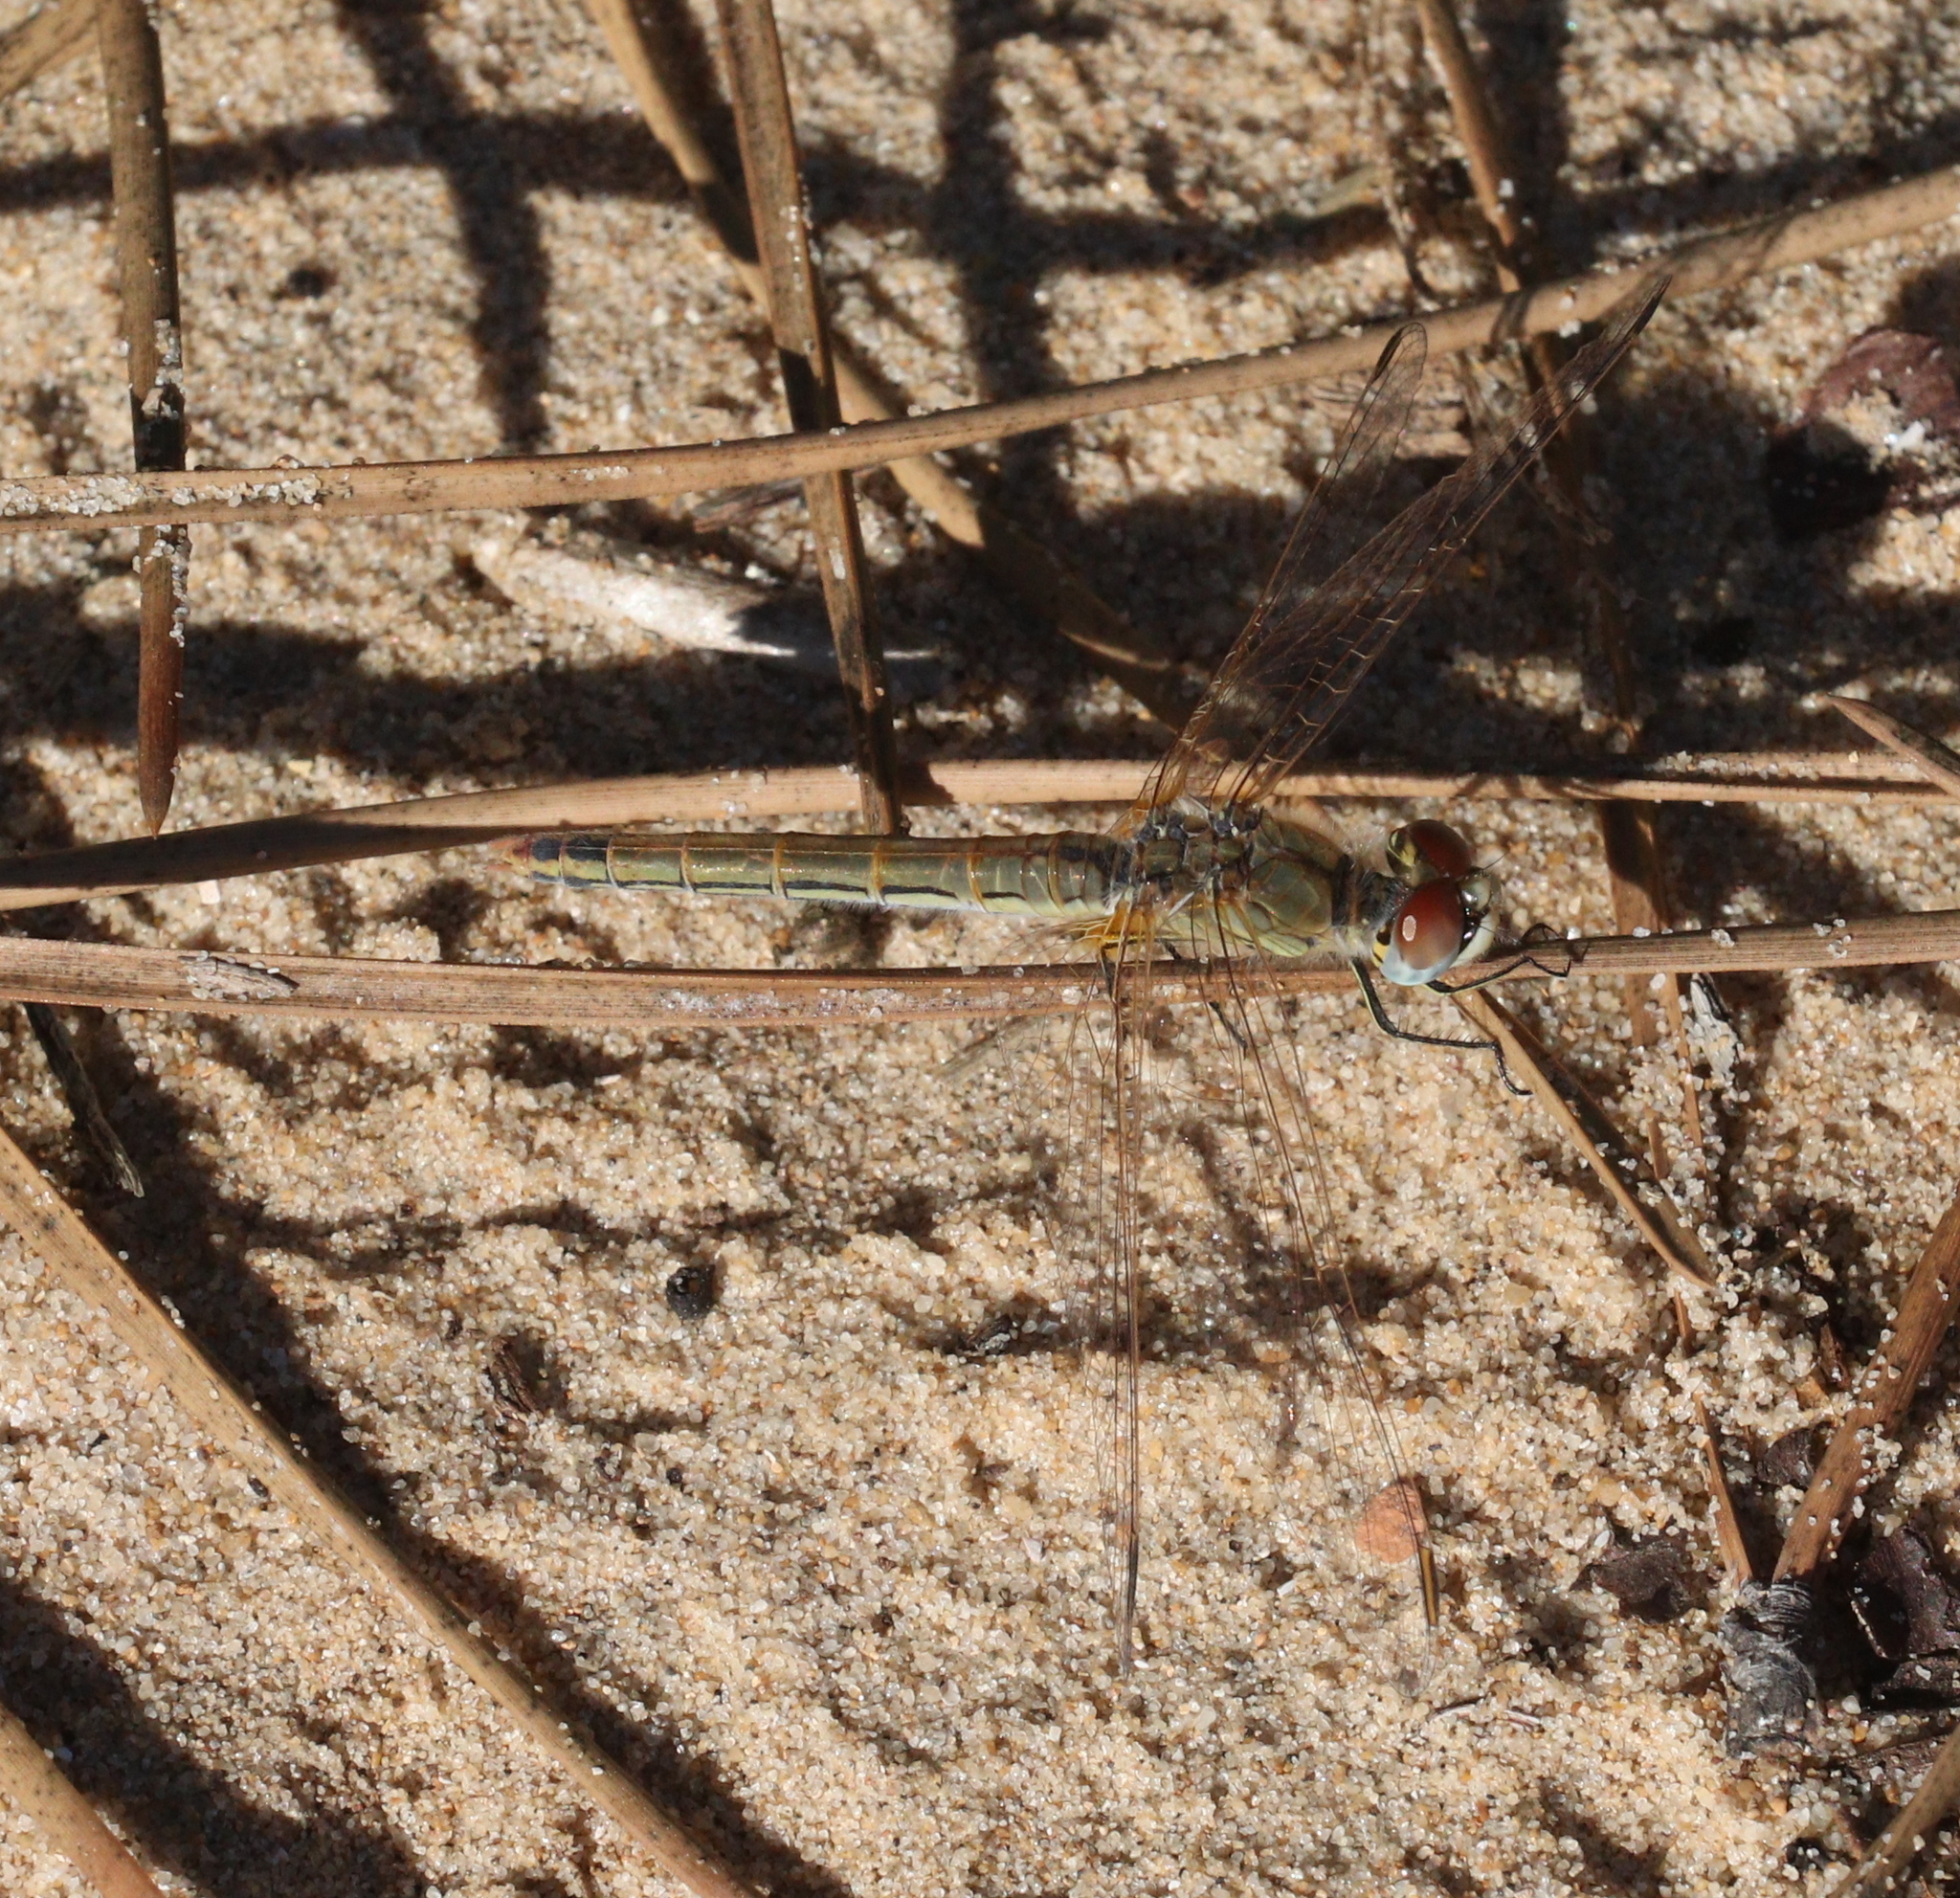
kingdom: Animalia
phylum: Arthropoda
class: Insecta
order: Odonata
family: Libellulidae
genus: Sympetrum
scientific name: Sympetrum fonscolombii
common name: Red-veined darter
